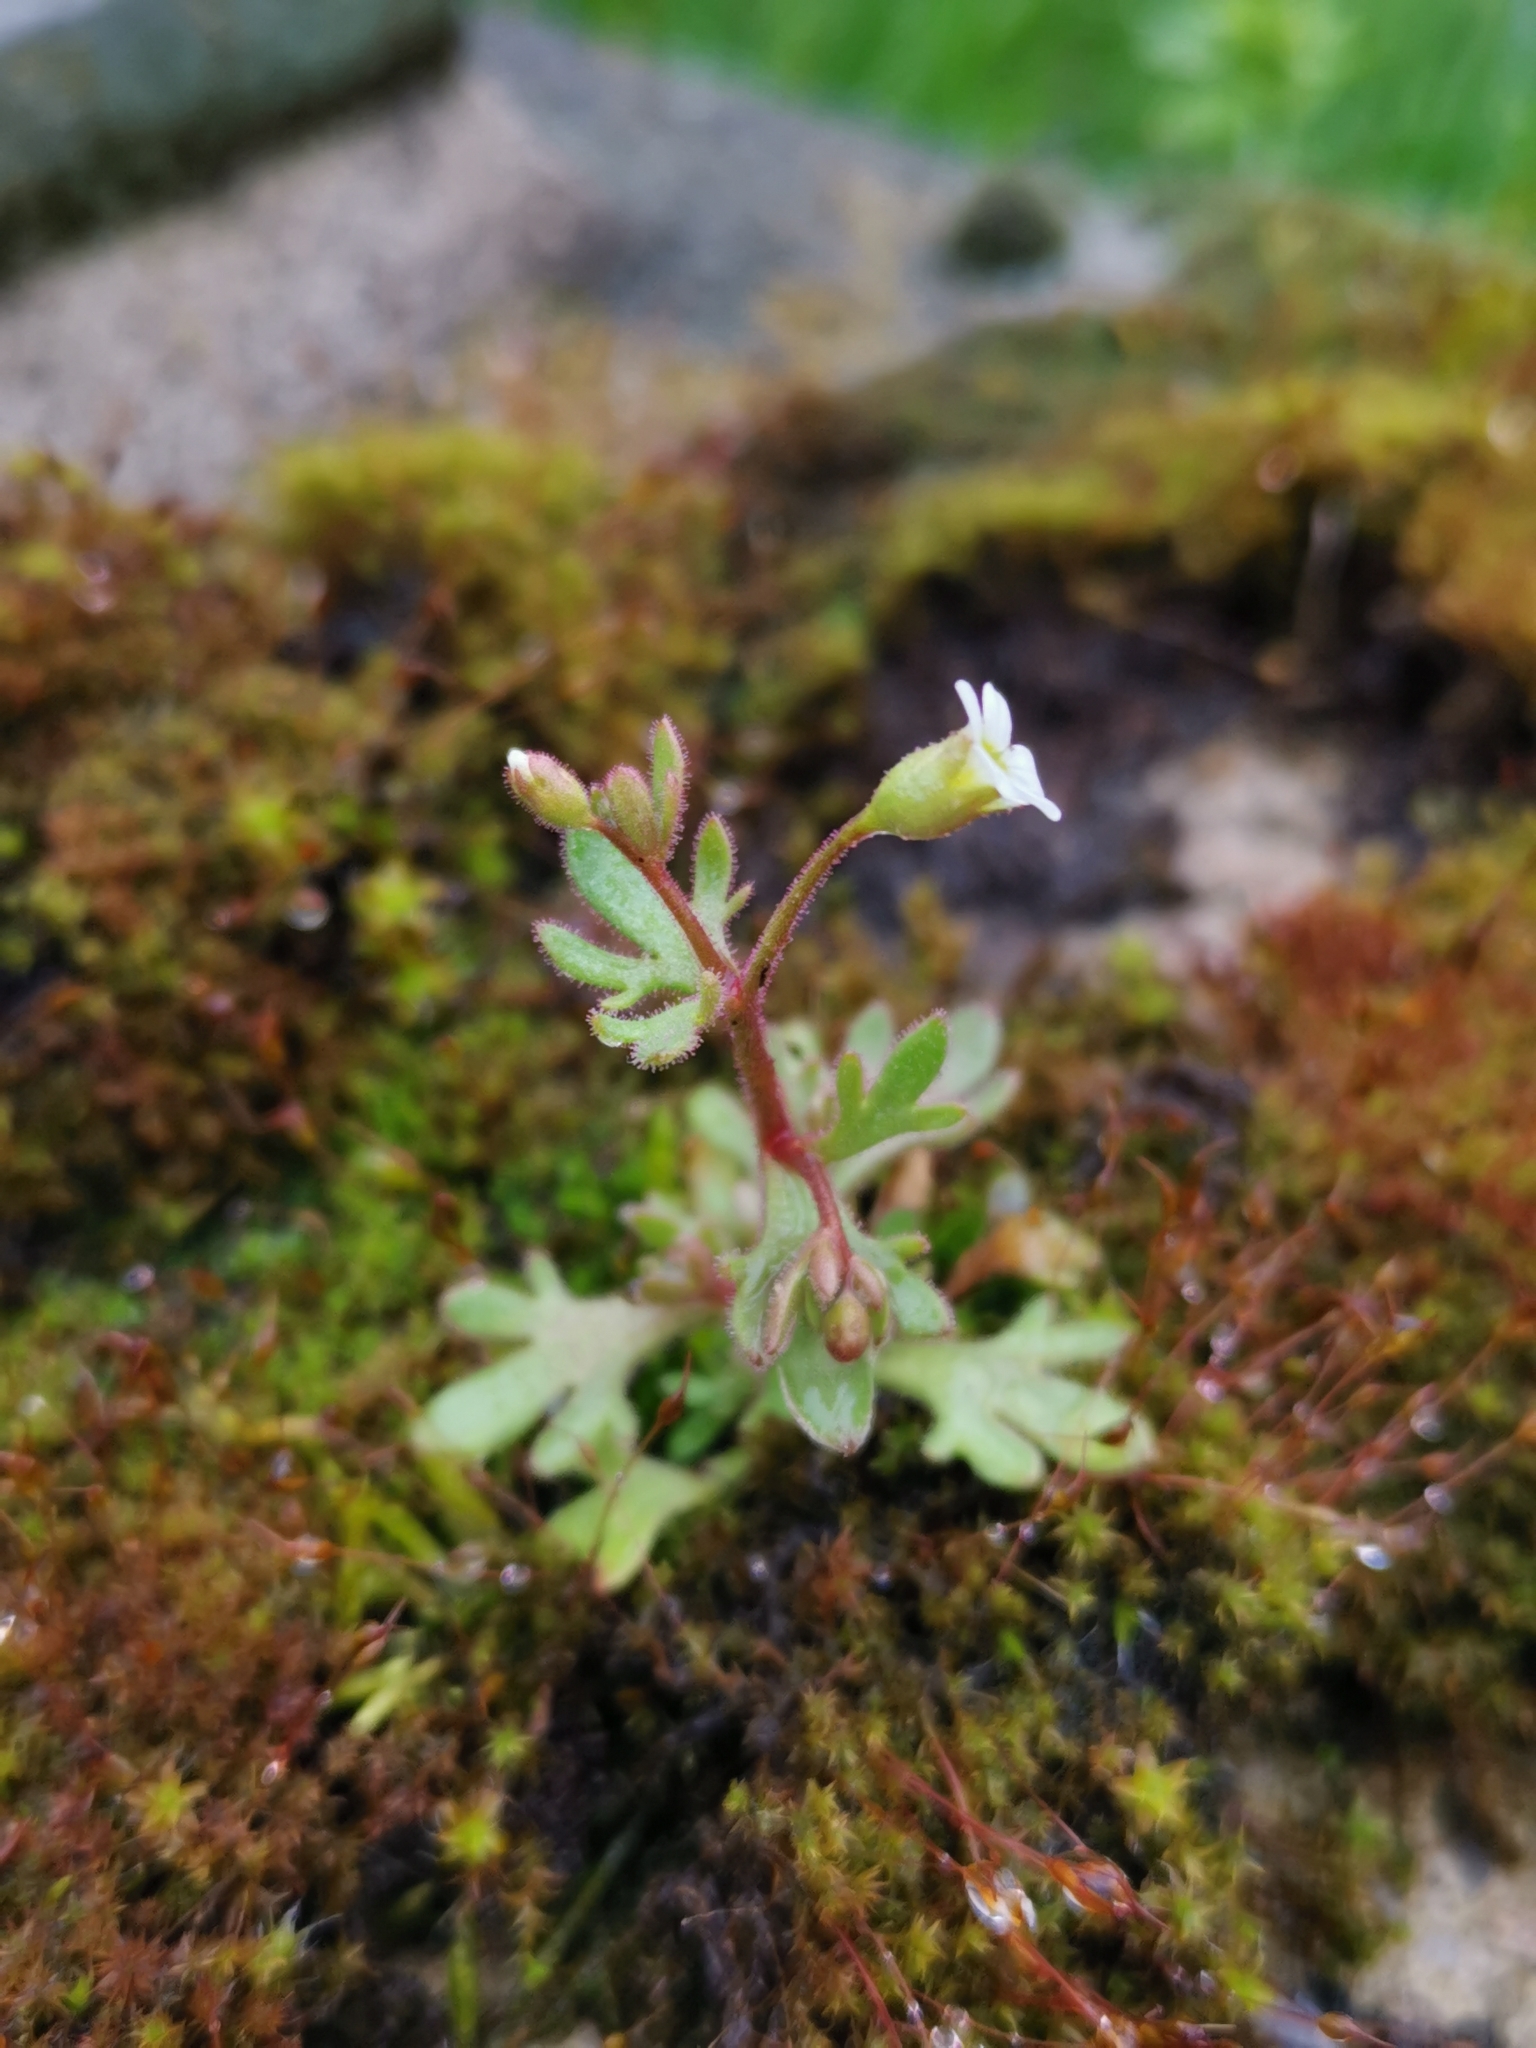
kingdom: Plantae
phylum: Tracheophyta
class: Magnoliopsida
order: Saxifragales
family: Saxifragaceae
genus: Saxifraga
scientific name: Saxifraga tridactylites
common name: Rue-leaved saxifrage
